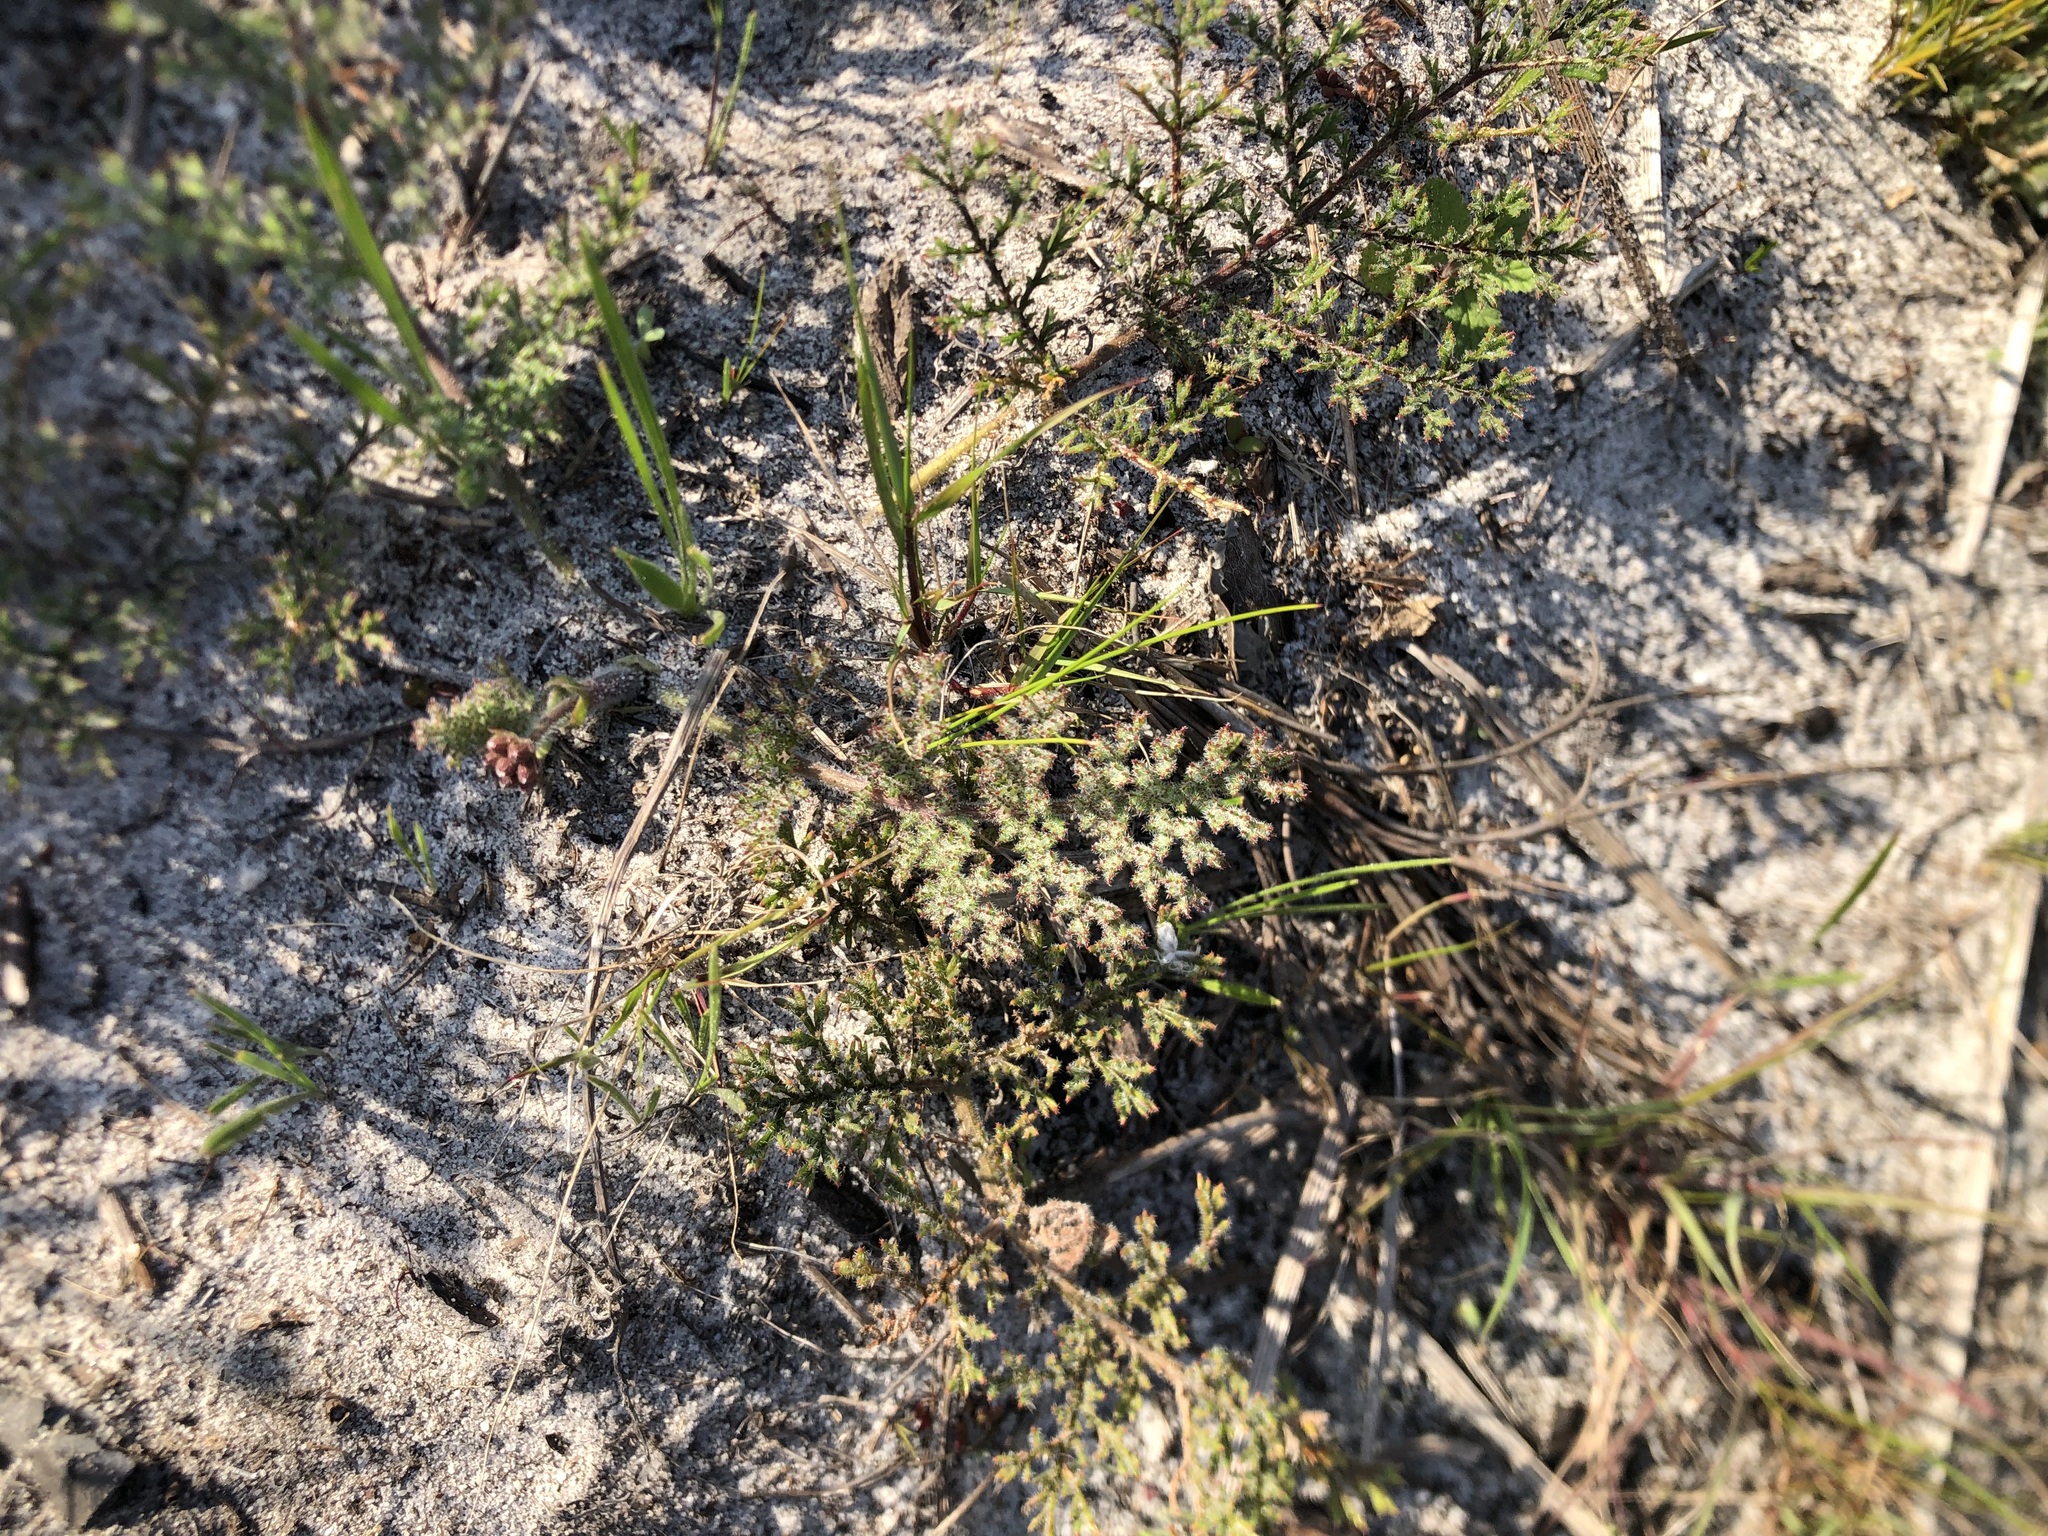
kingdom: Plantae
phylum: Tracheophyta
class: Magnoliopsida
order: Geraniales
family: Geraniaceae
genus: Pelargonium
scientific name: Pelargonium triste
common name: Night-scent pelargonium
